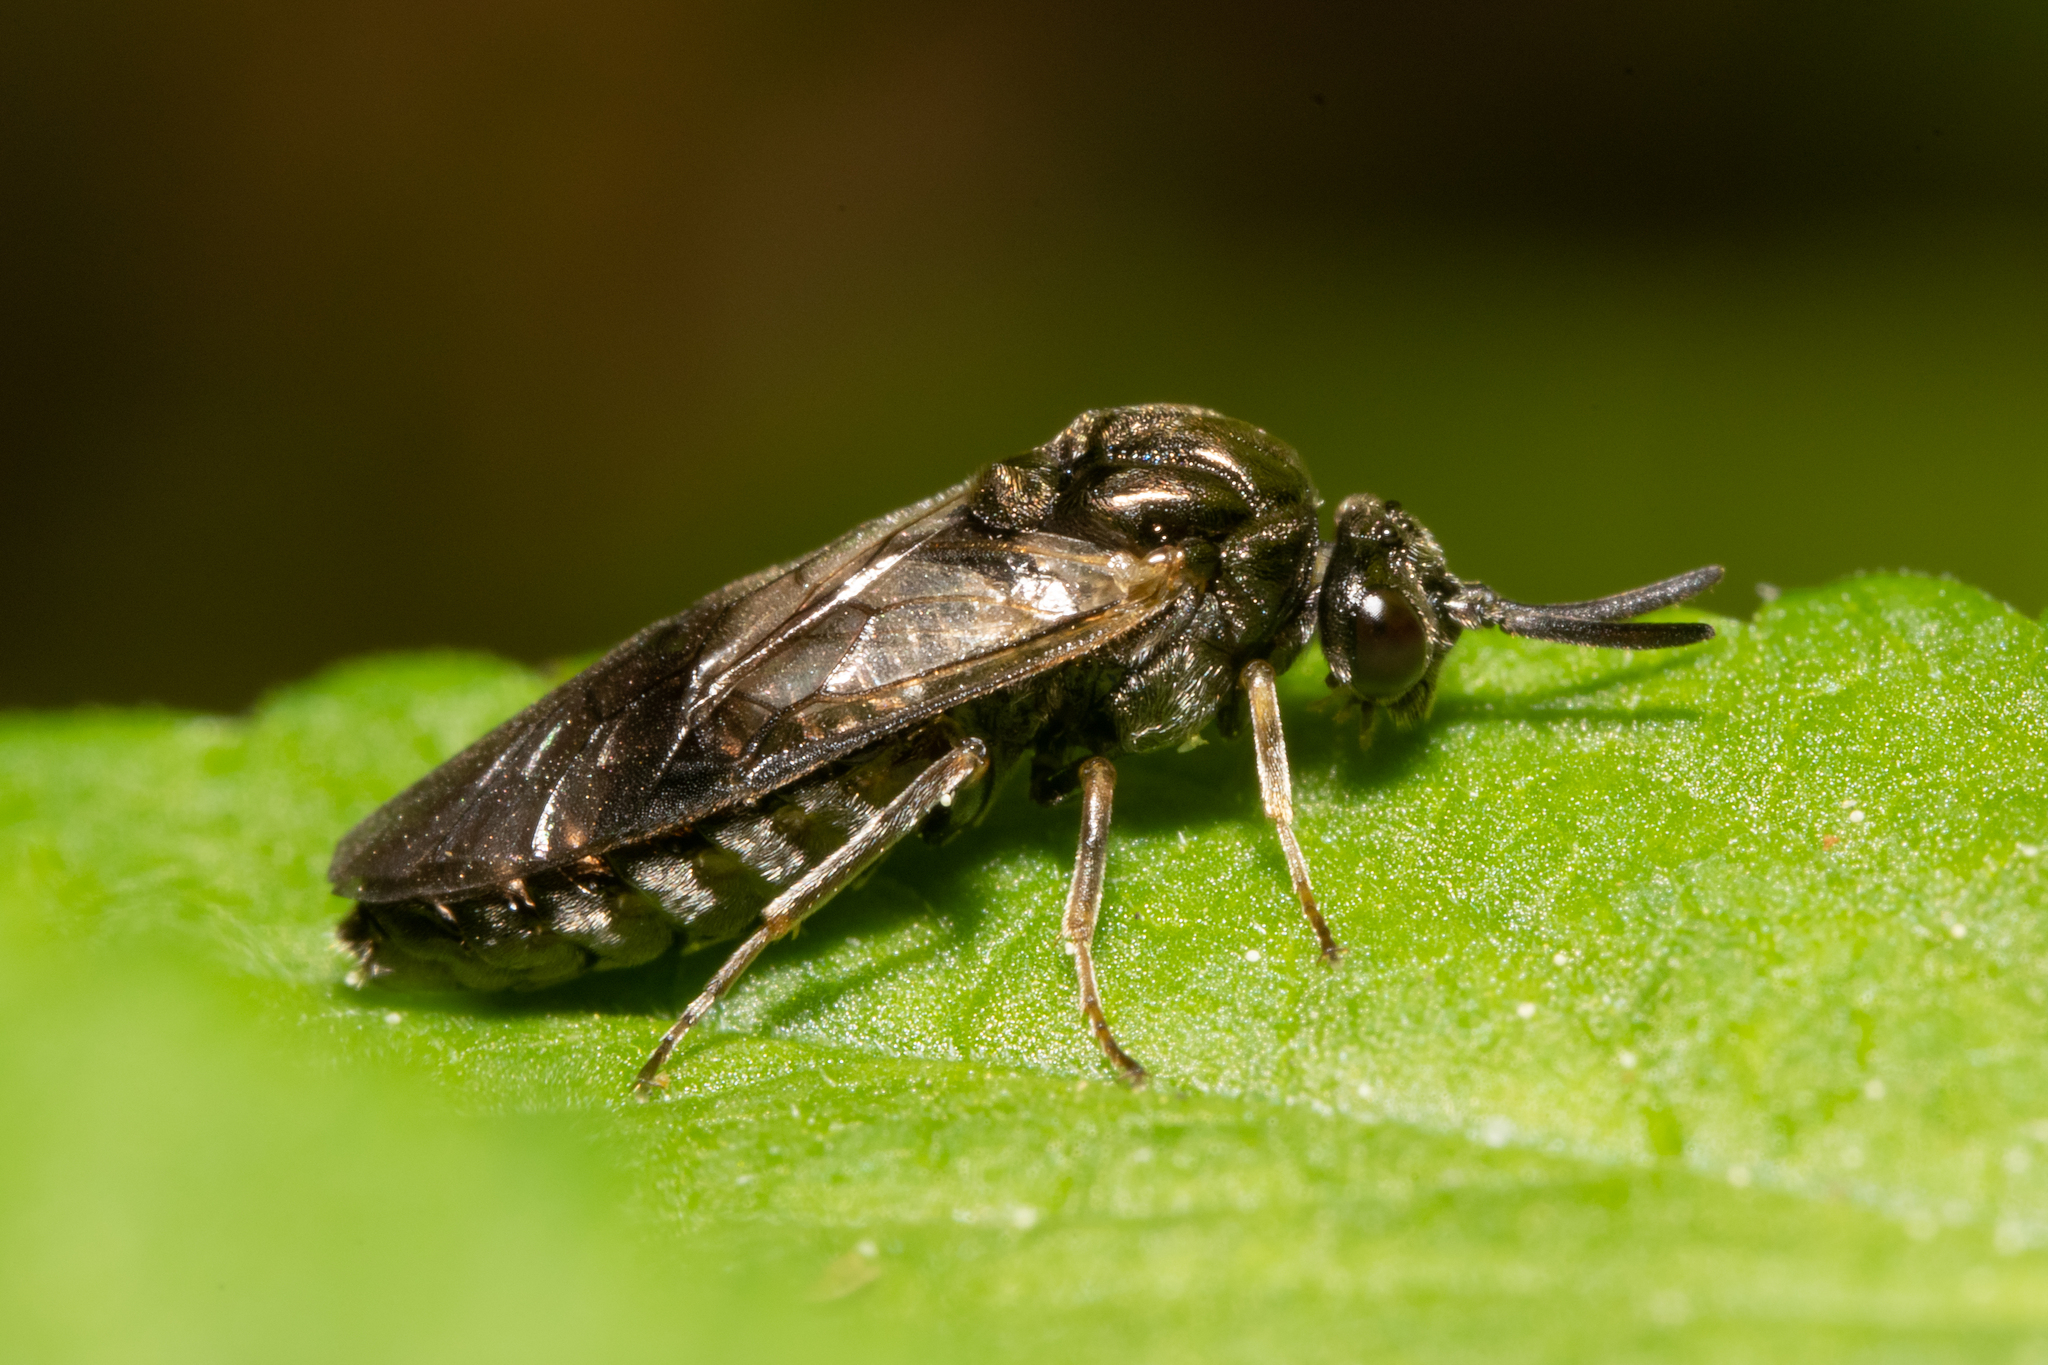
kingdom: Animalia
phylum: Arthropoda
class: Insecta
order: Hymenoptera
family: Argidae
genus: Sterictiphora
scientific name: Sterictiphora geminata
